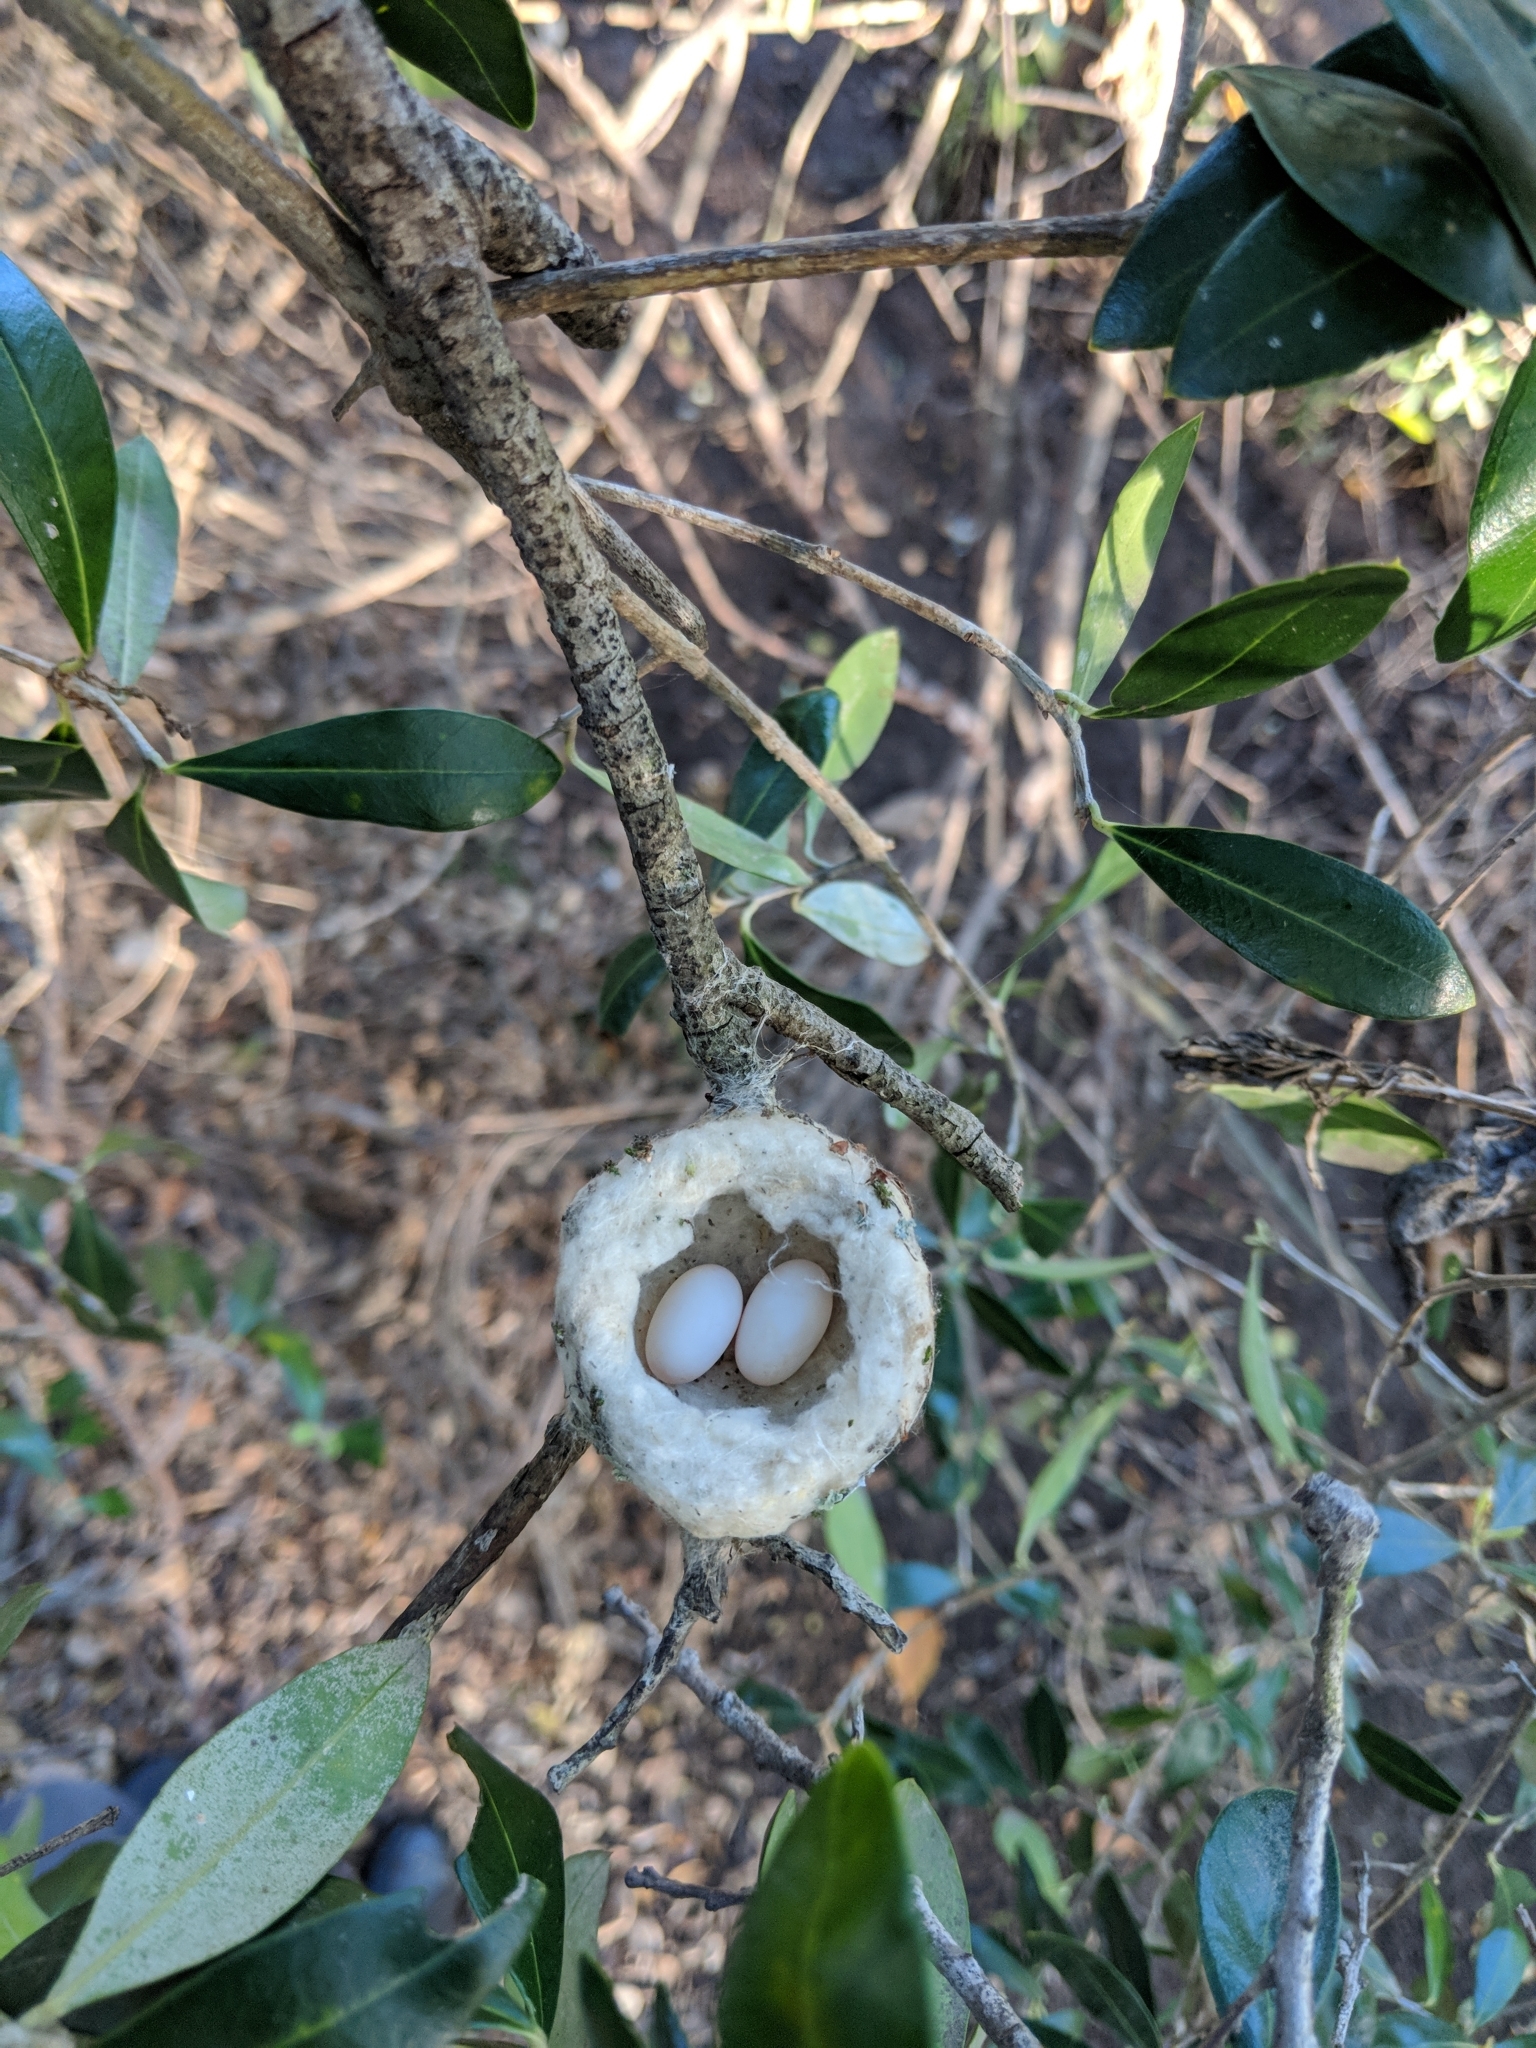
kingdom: Animalia
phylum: Chordata
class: Aves
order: Apodiformes
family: Trochilidae
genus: Calypte
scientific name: Calypte anna
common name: Anna's hummingbird
